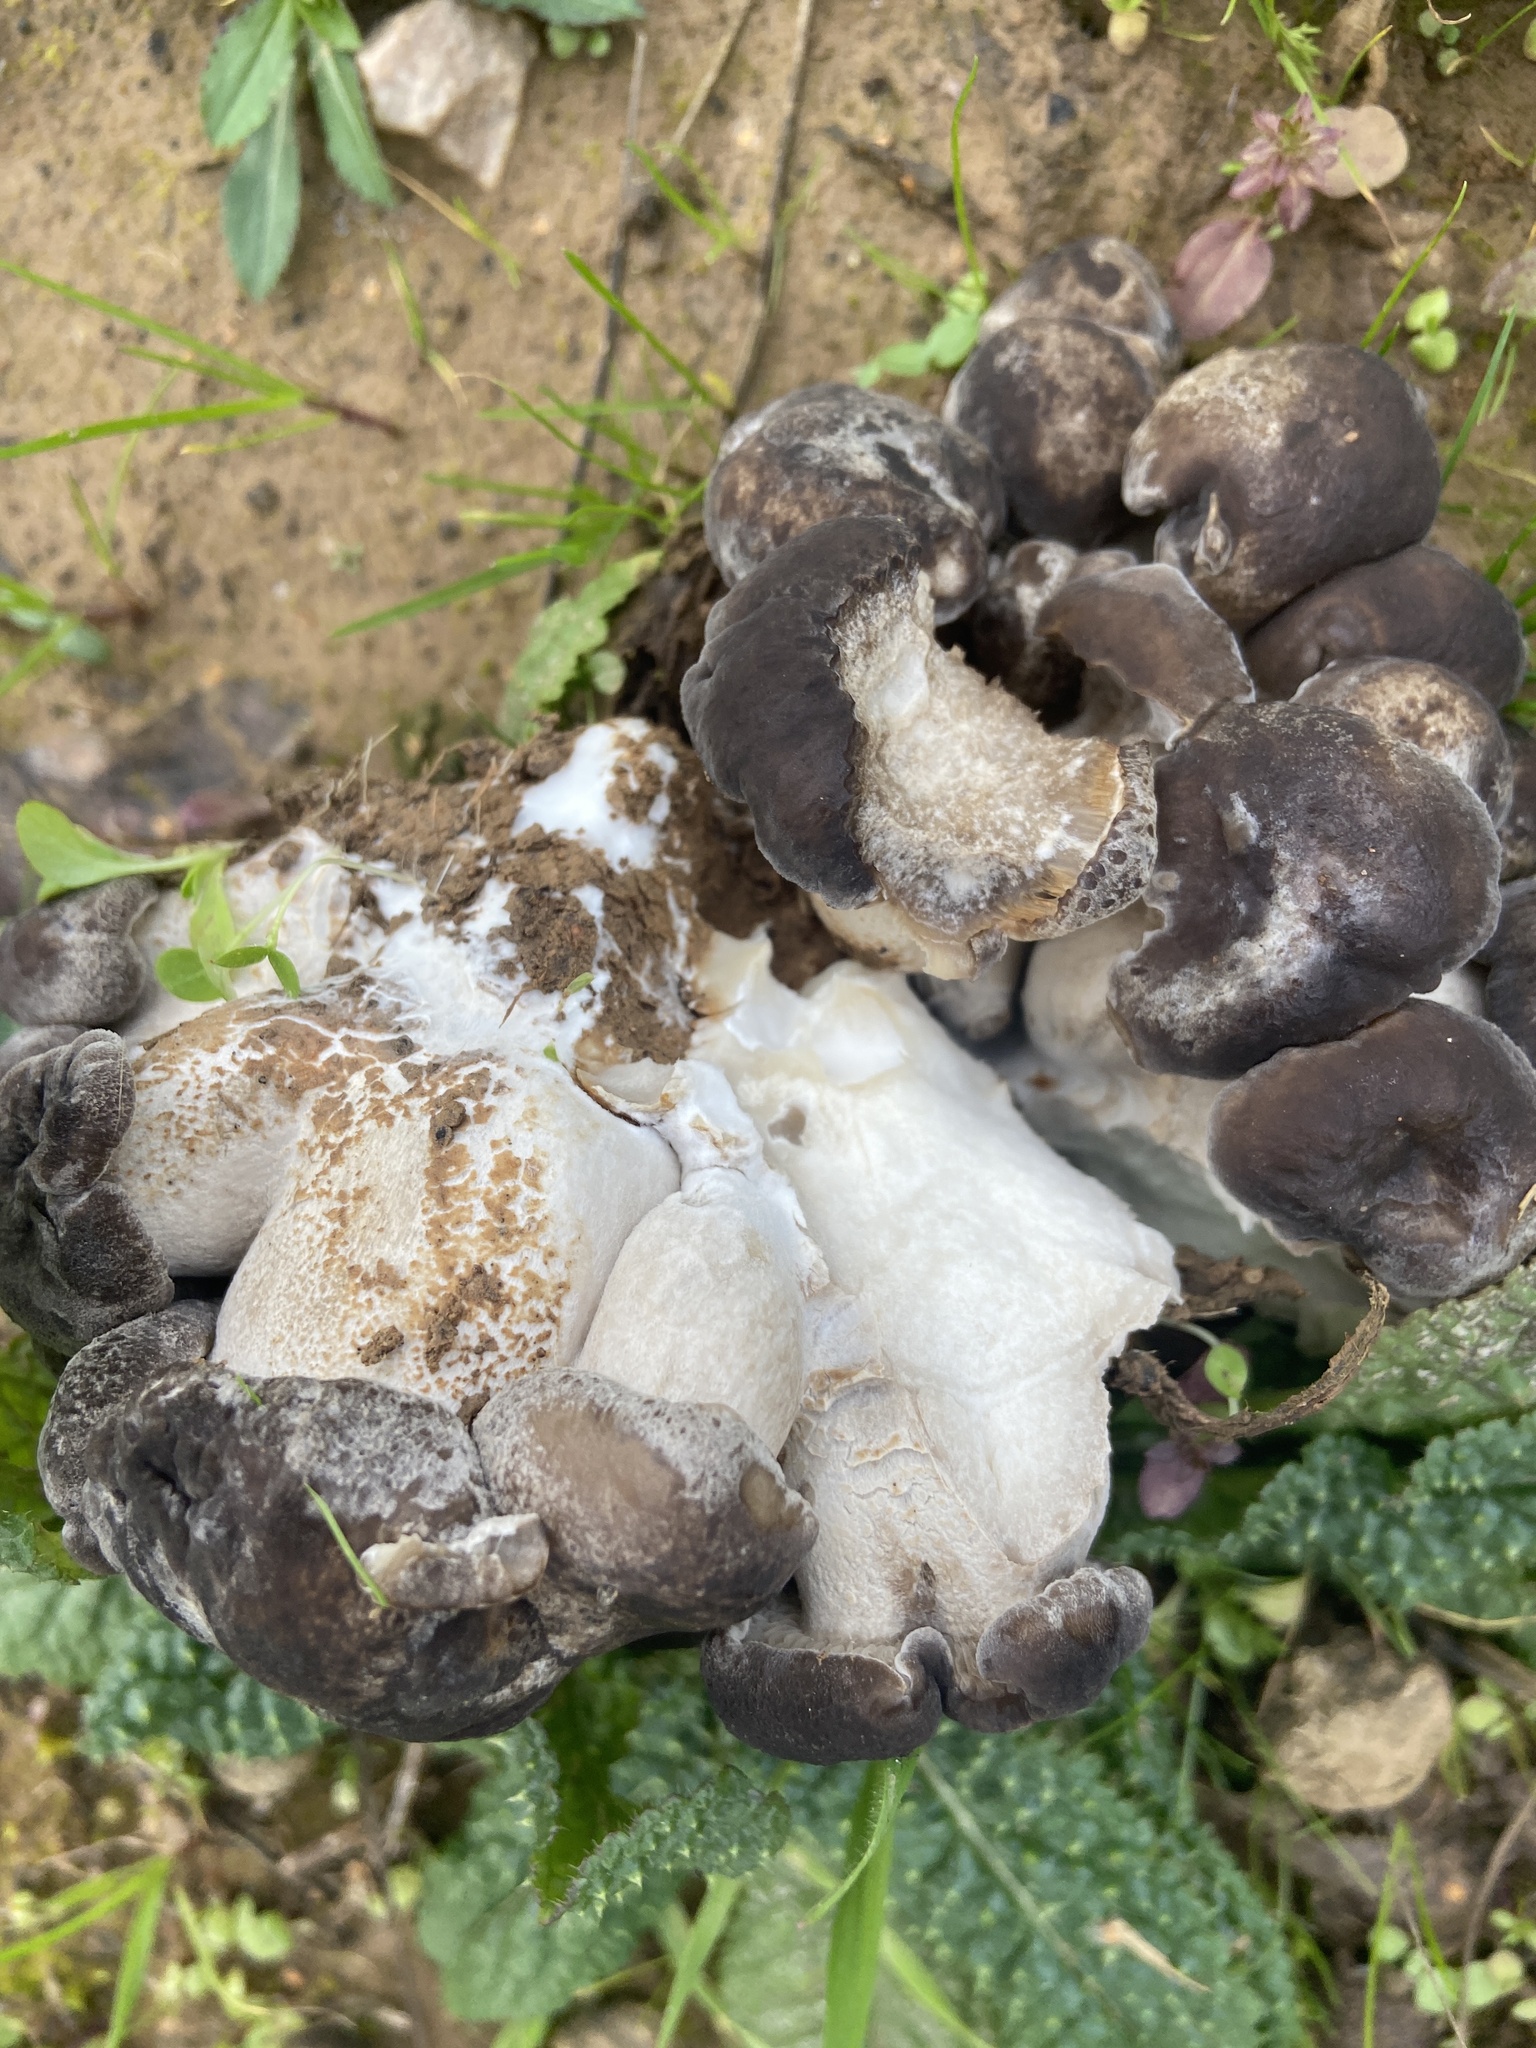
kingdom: Fungi
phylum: Basidiomycota
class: Agaricomycetes
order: Agaricales
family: Lyophyllaceae
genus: Lyophyllum
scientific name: Lyophyllum decastes
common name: Clustered domecap
